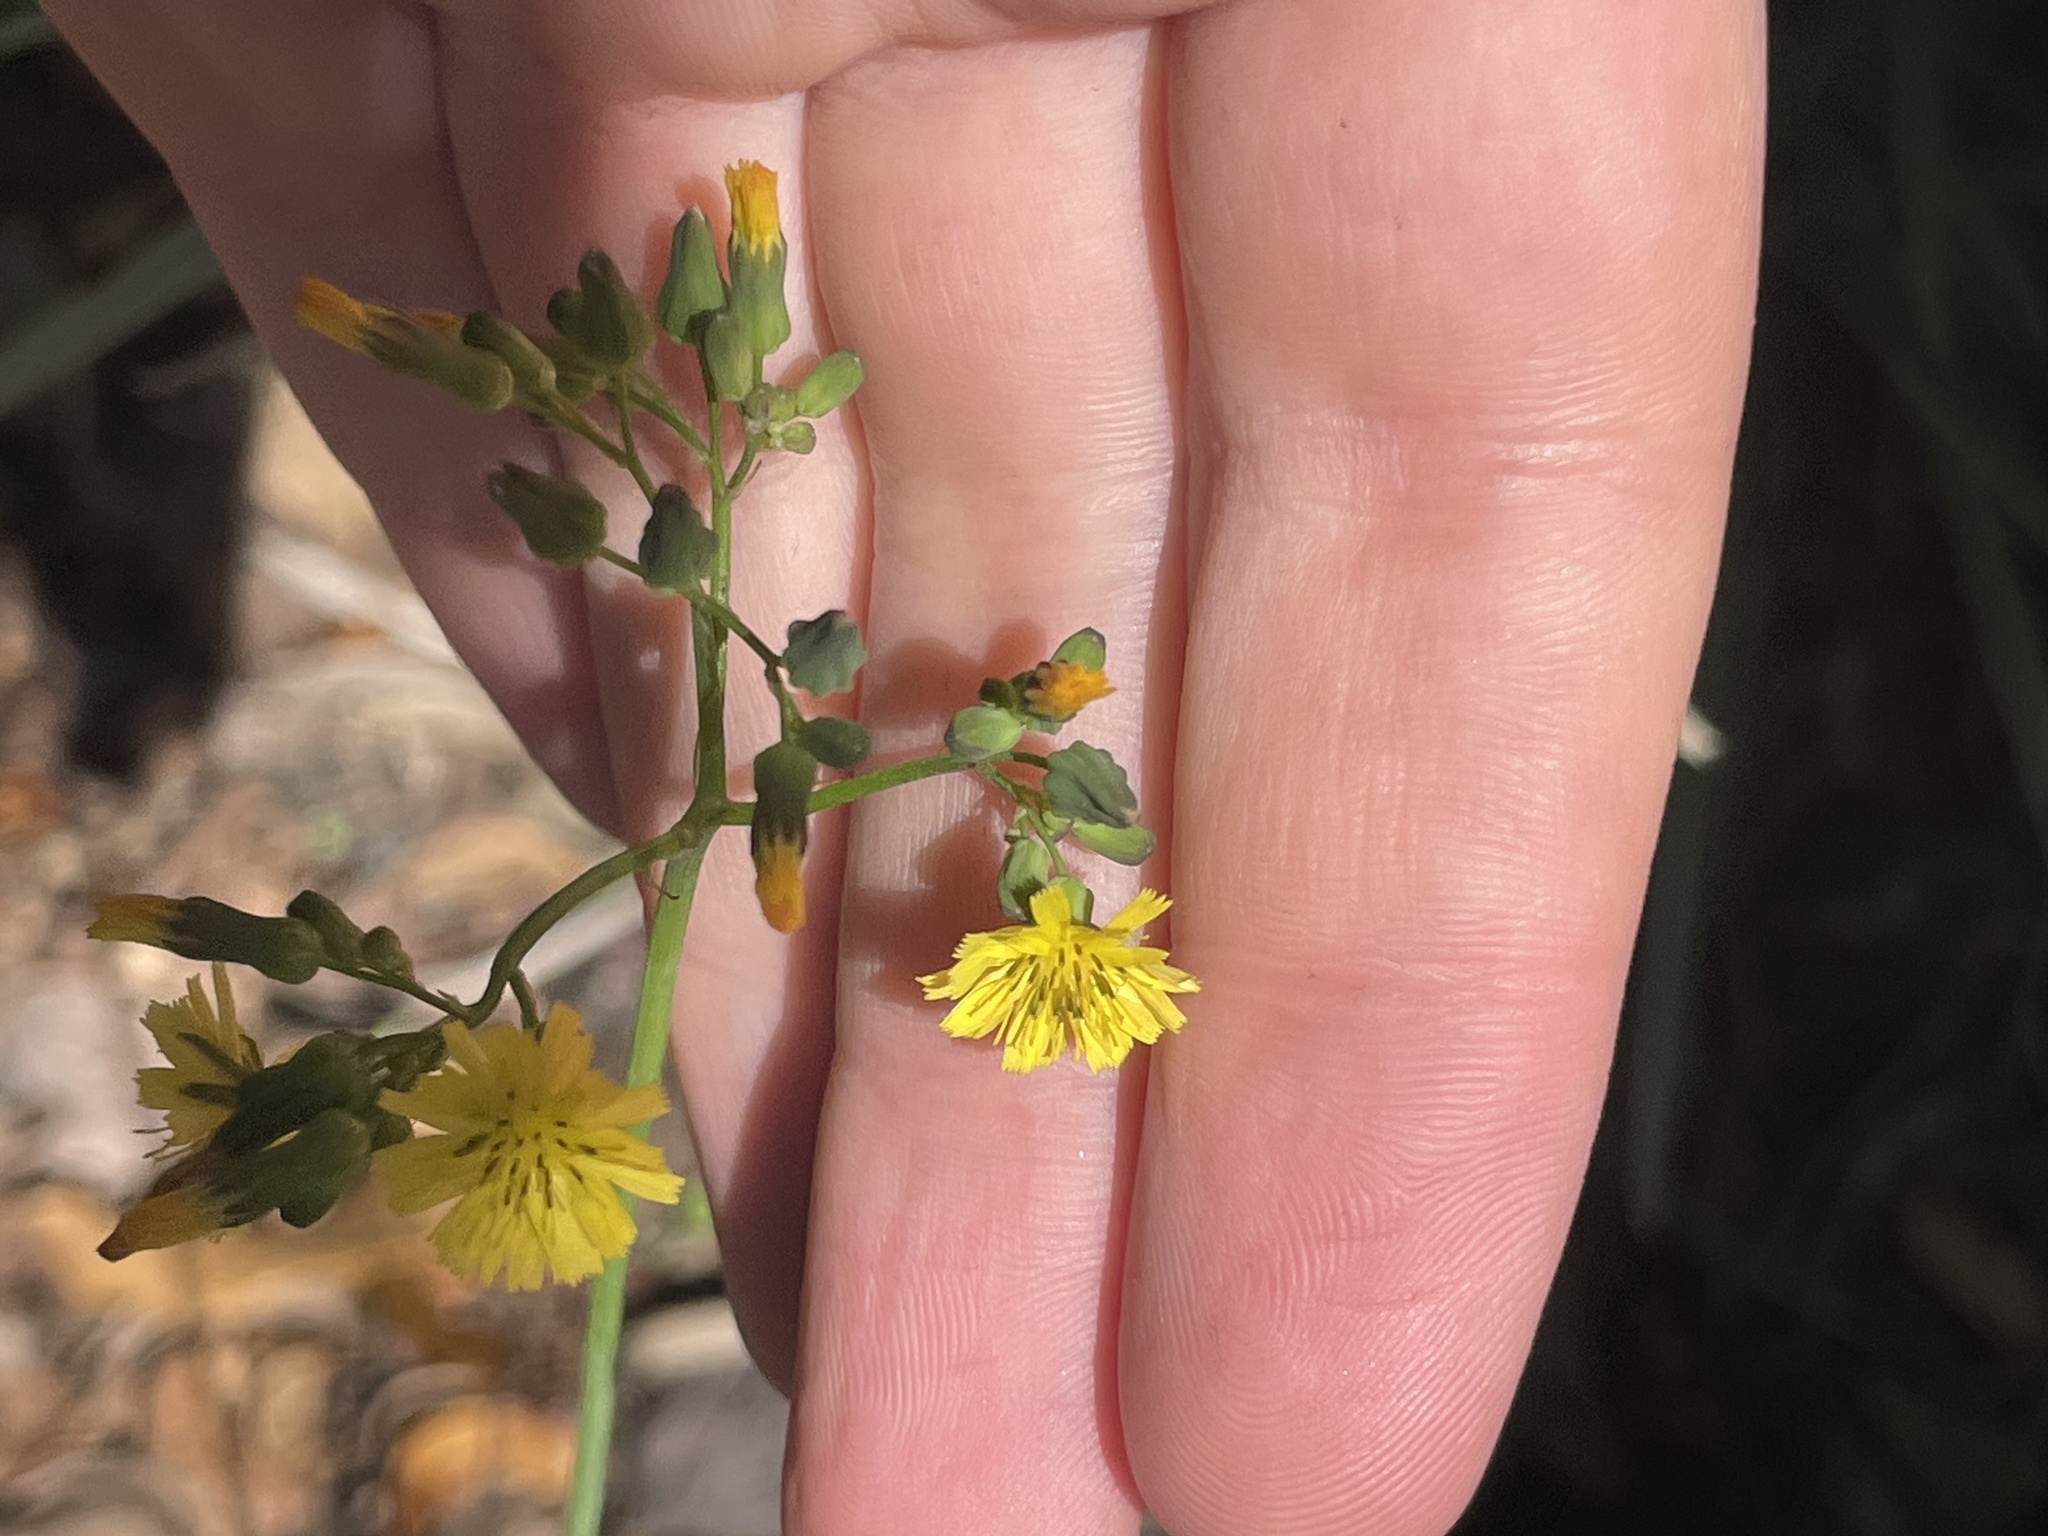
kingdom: Plantae
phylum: Tracheophyta
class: Magnoliopsida
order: Asterales
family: Asteraceae
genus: Youngia
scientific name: Youngia japonica
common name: Oriental false hawksbeard
